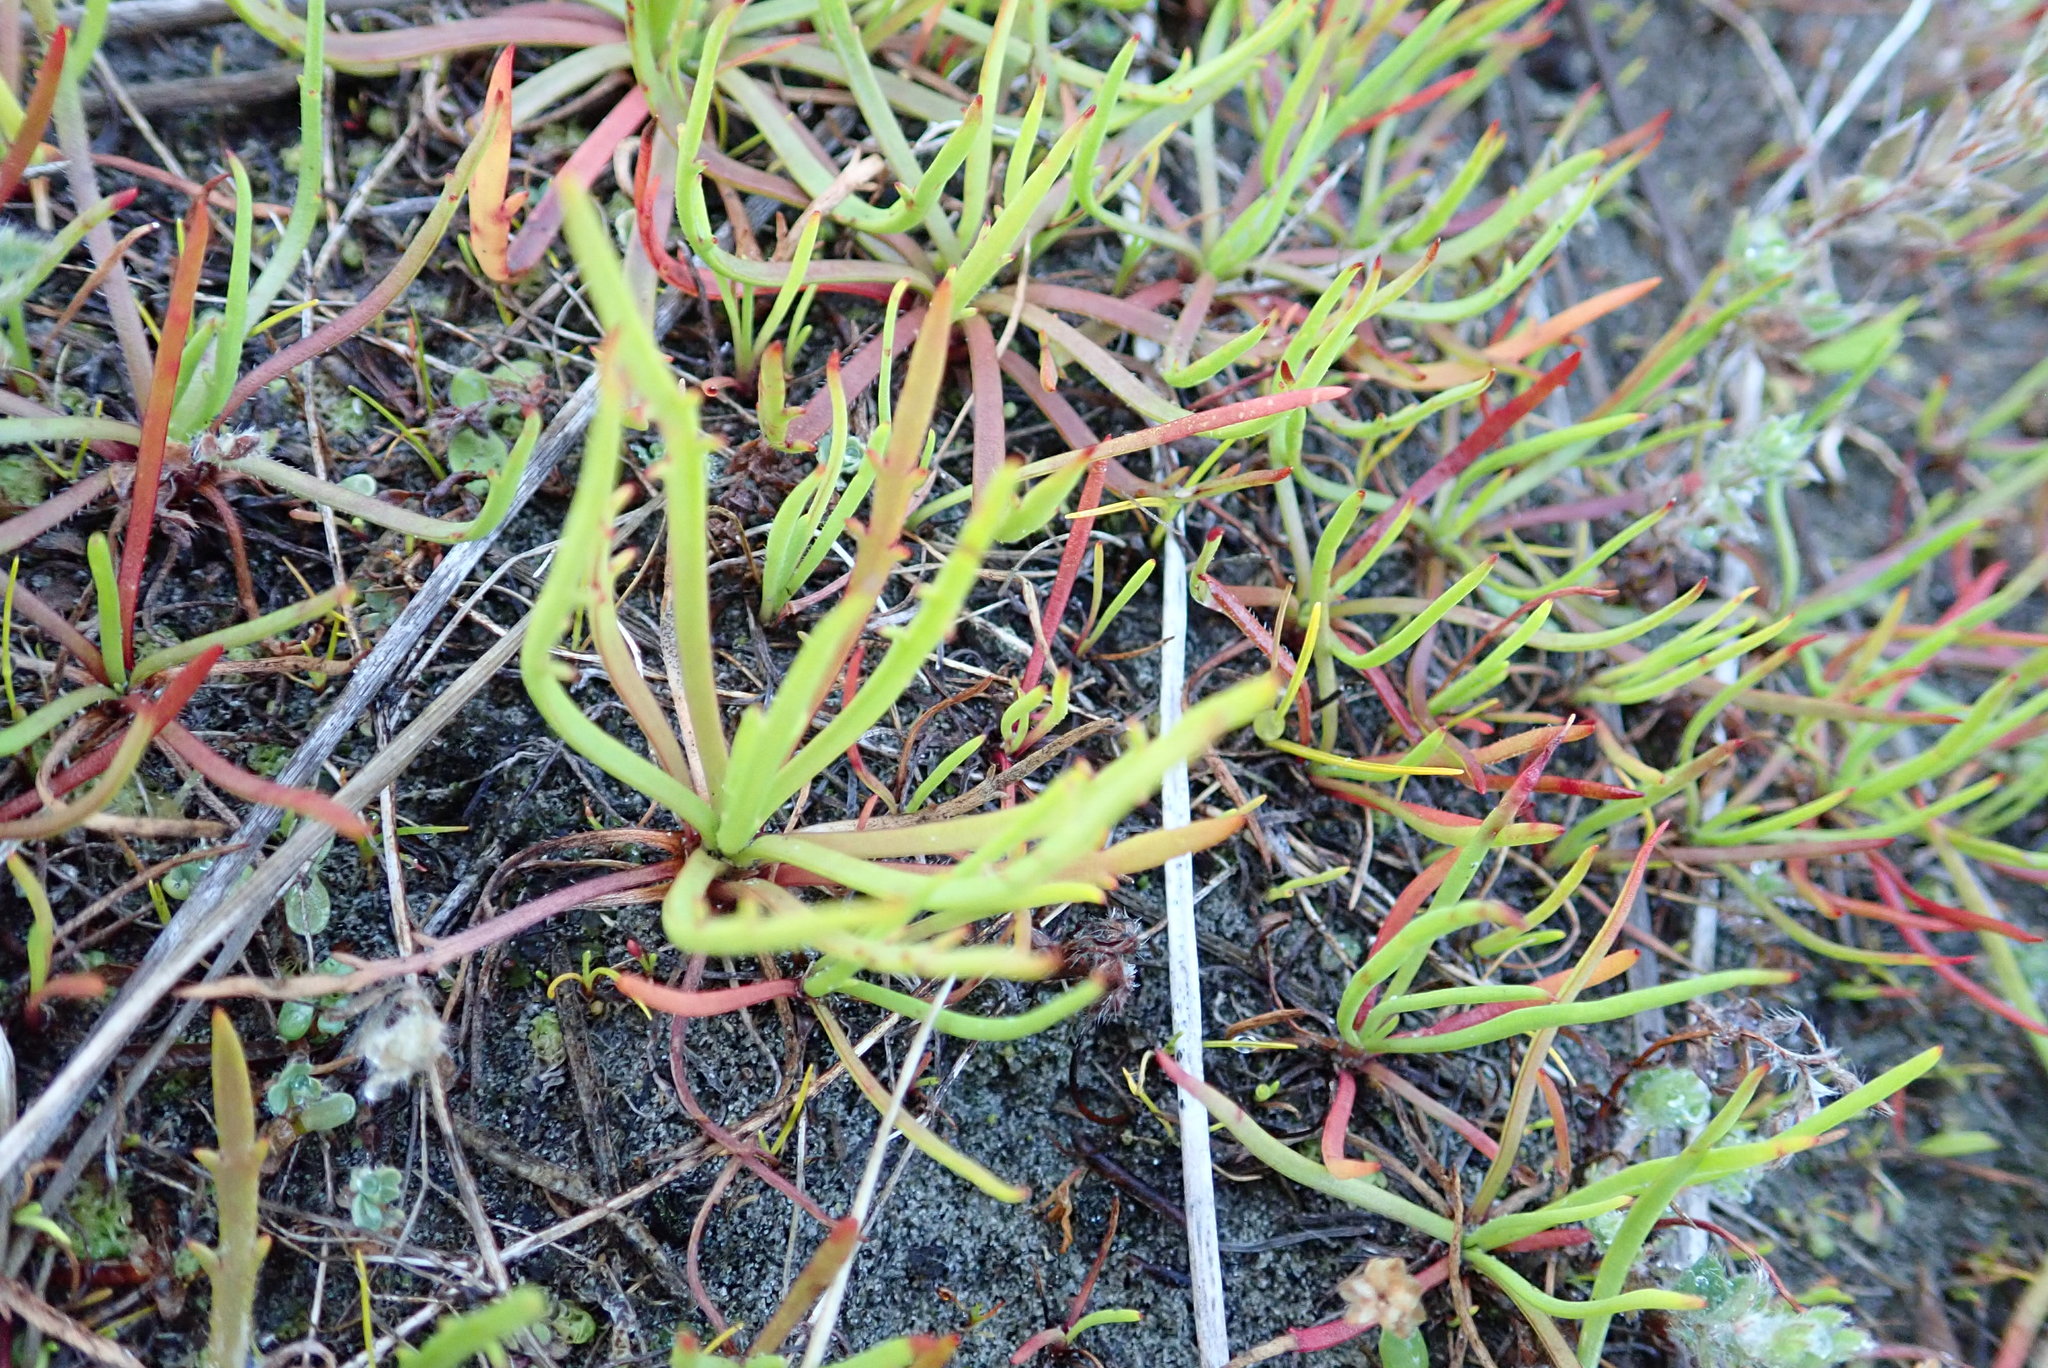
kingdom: Plantae
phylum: Tracheophyta
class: Magnoliopsida
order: Lamiales
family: Plantaginaceae
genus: Plantago
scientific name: Plantago coronopus
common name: Buck's-horn plantain
